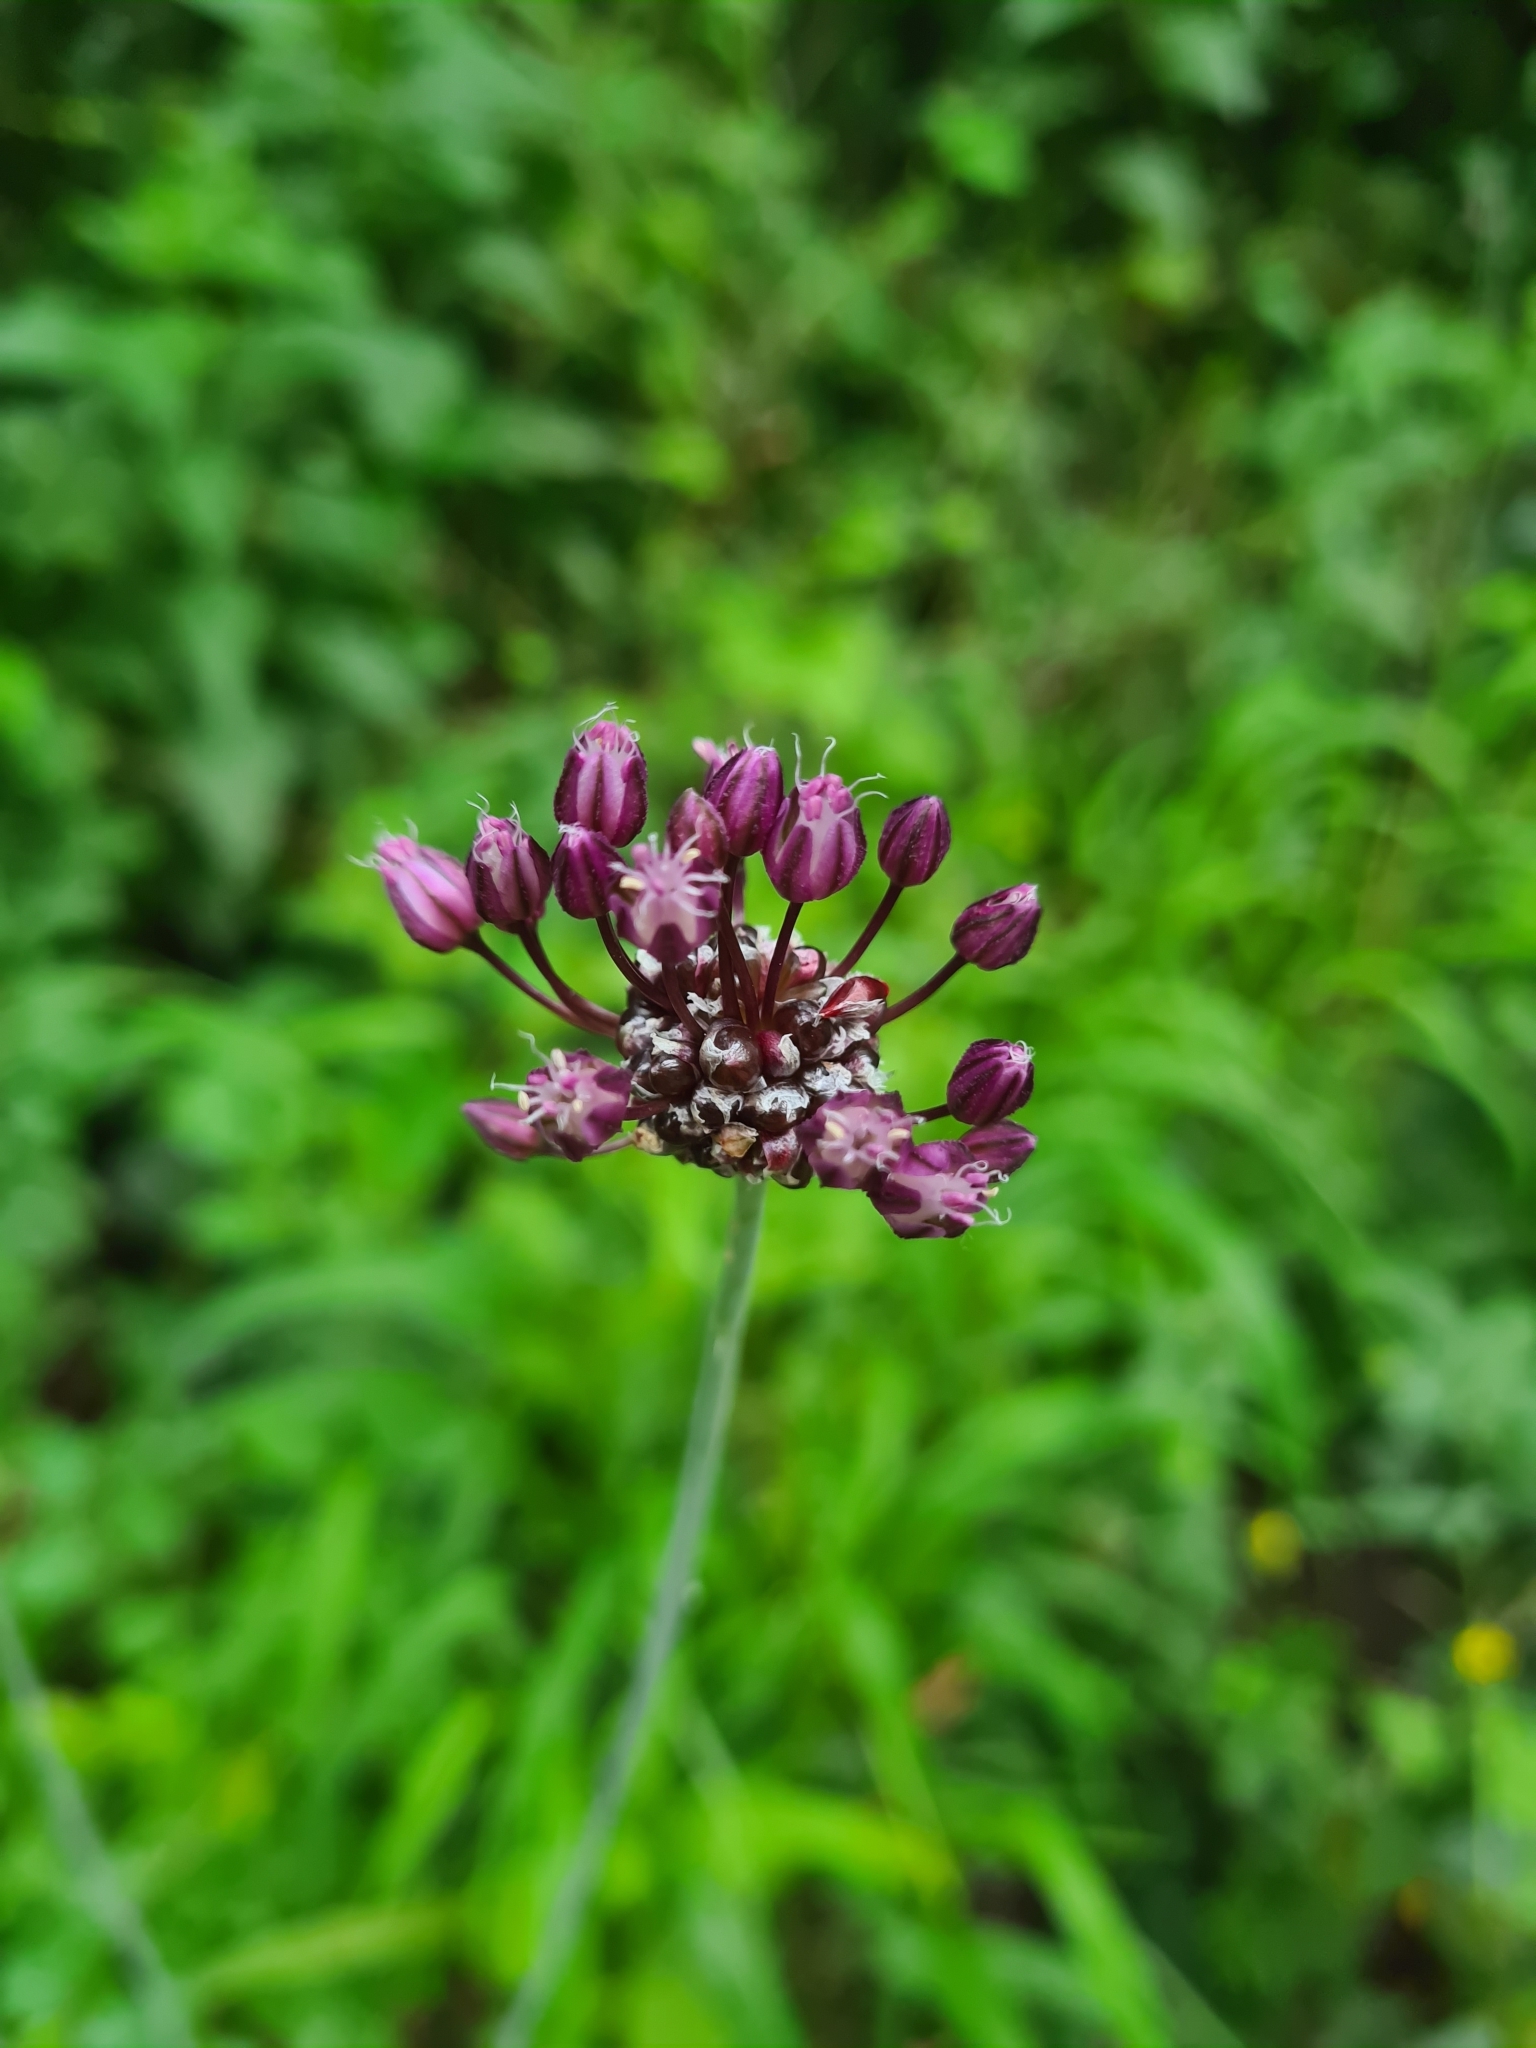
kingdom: Plantae
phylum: Tracheophyta
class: Liliopsida
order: Asparagales
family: Amaryllidaceae
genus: Allium
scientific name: Allium scorodoprasum
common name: Sand leek
